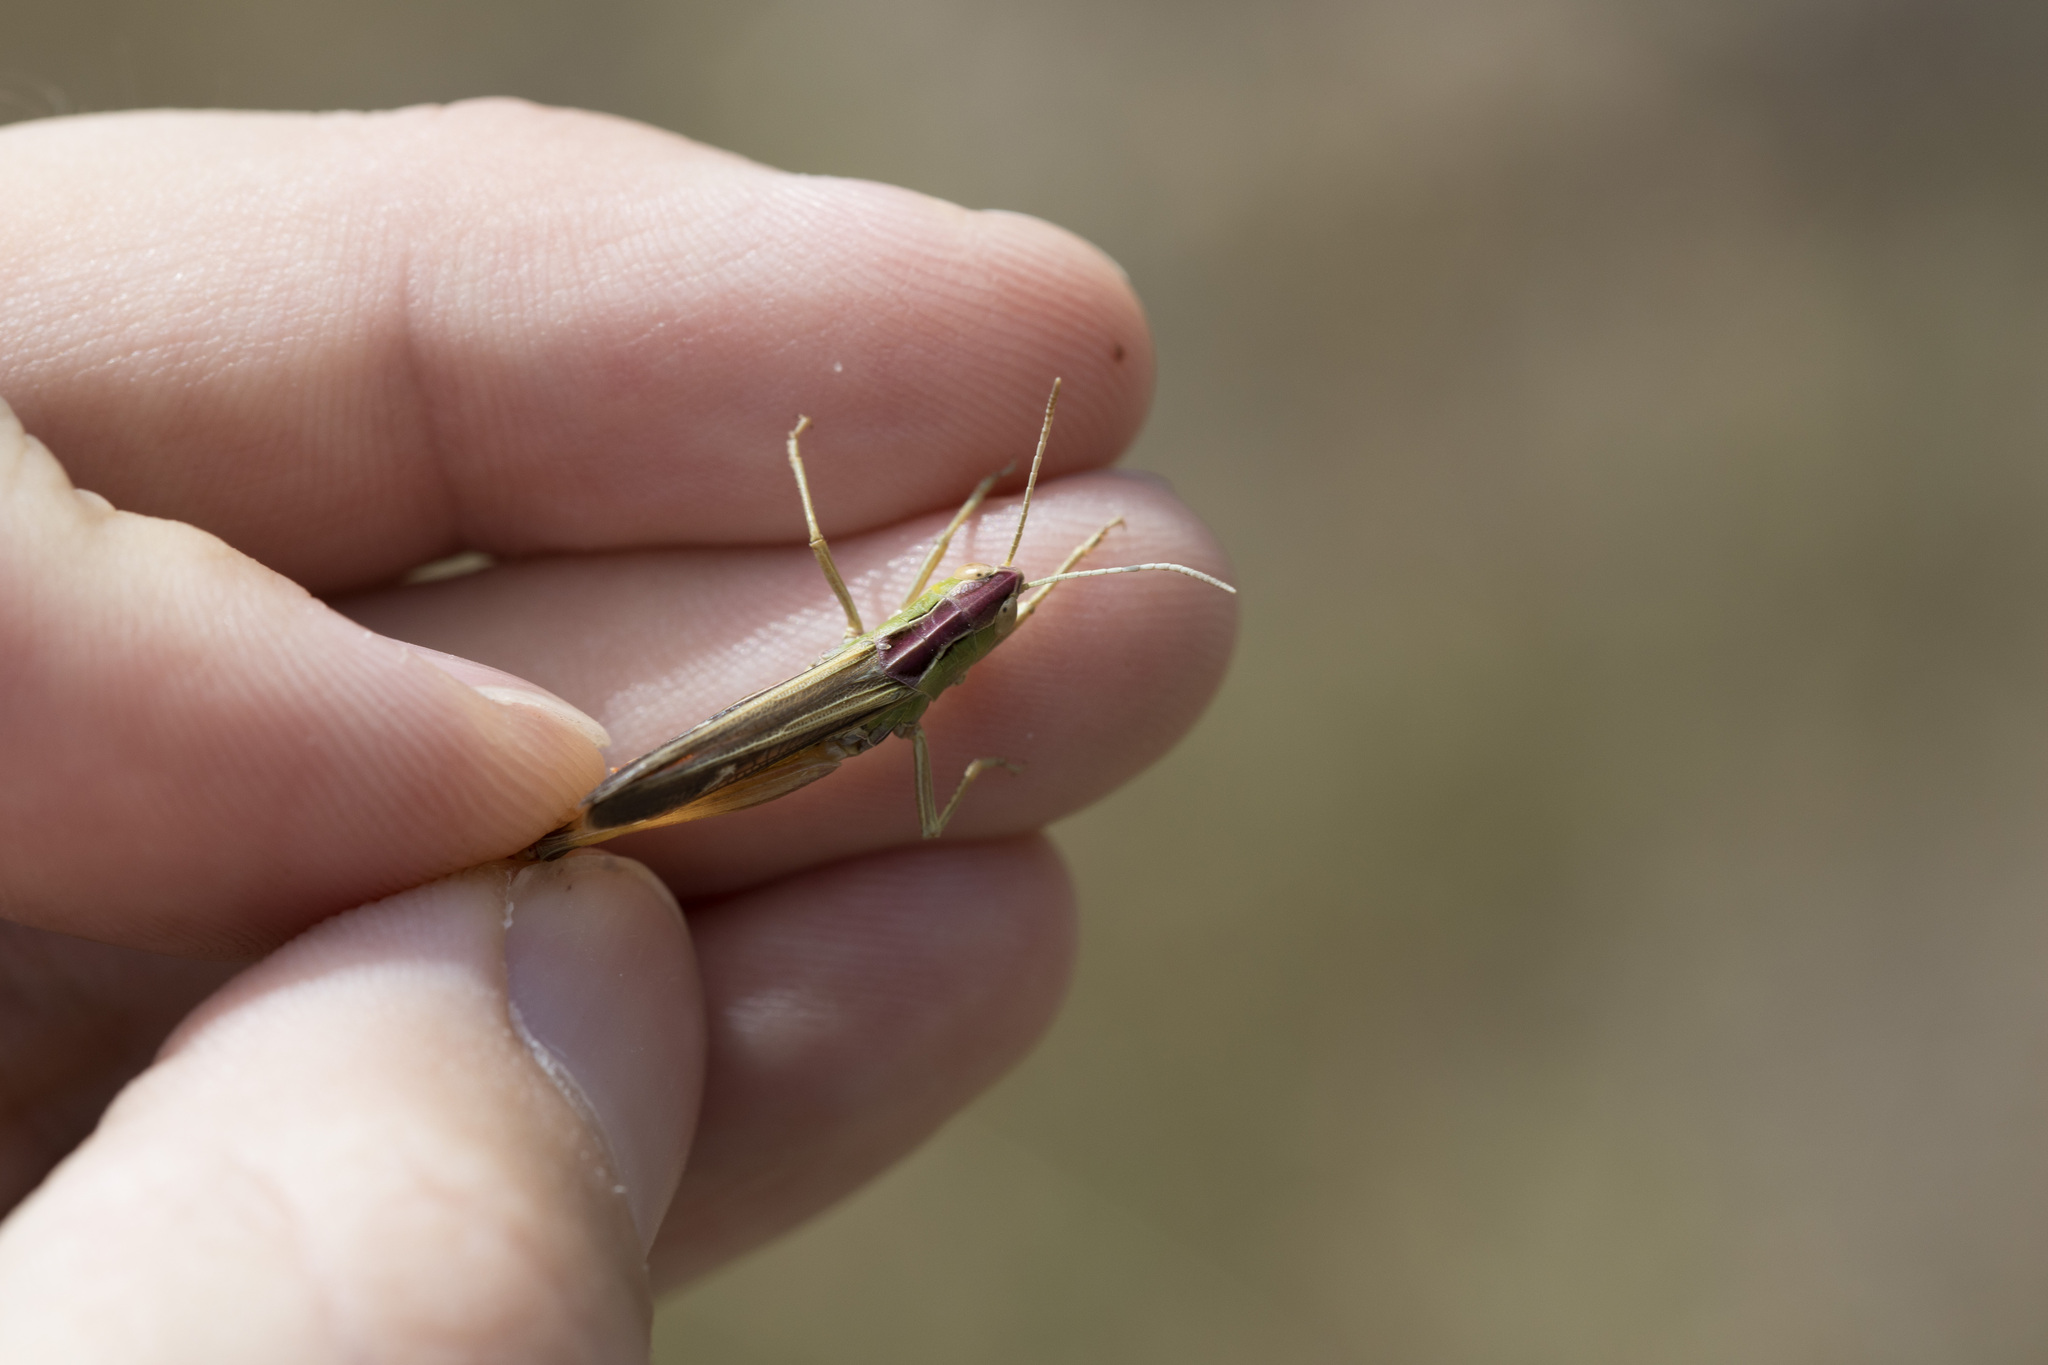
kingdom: Animalia
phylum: Arthropoda
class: Insecta
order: Orthoptera
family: Acrididae
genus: Stenobothrus
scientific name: Stenobothrus lineatus
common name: Stripe-winged grasshopper
